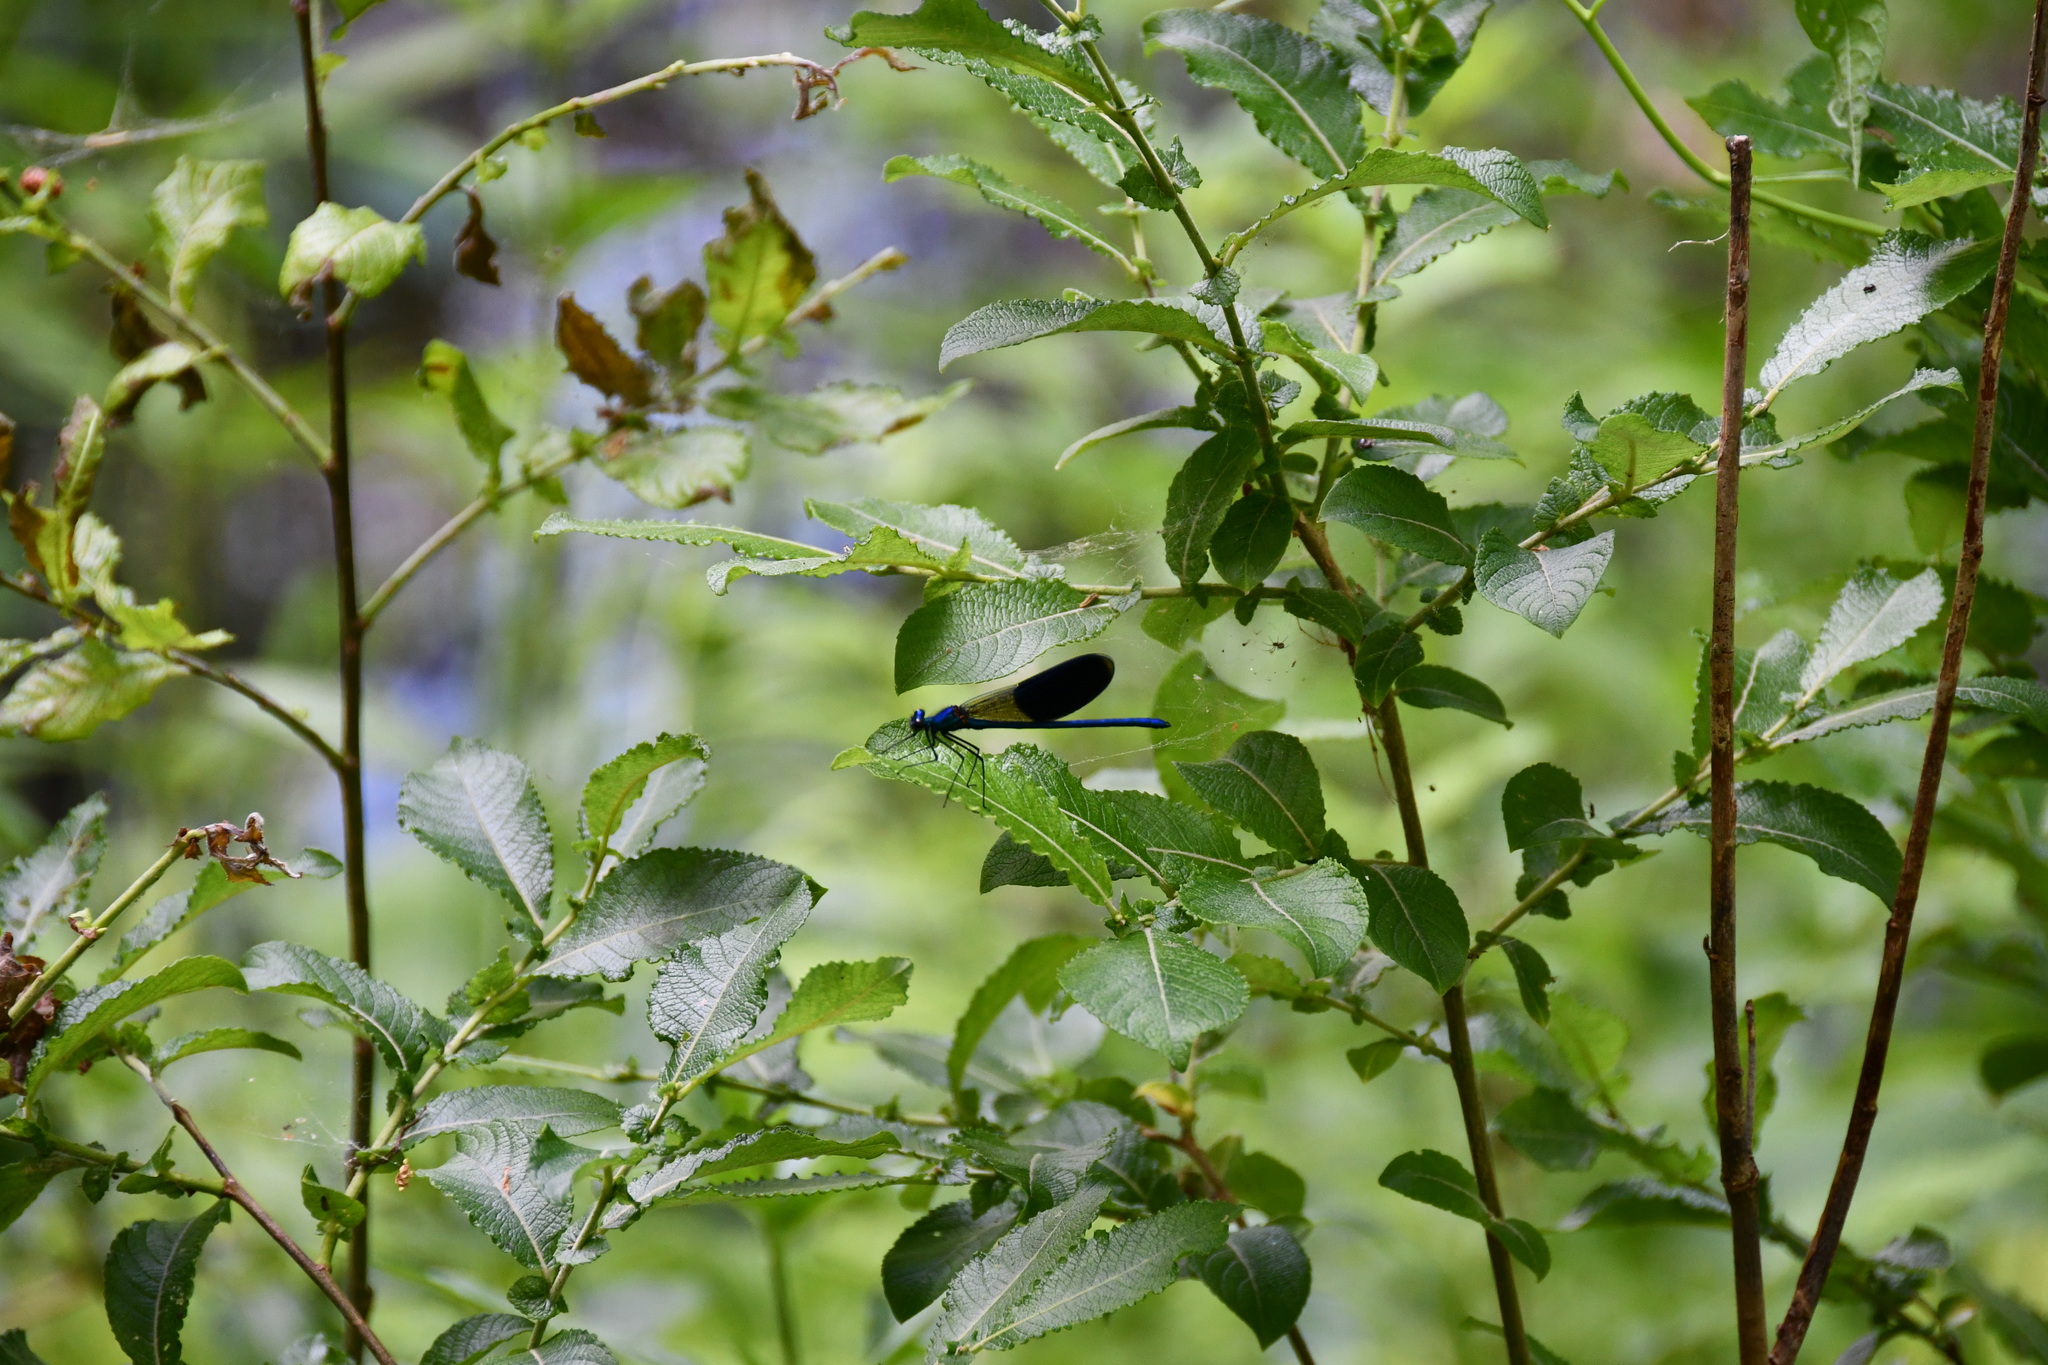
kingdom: Animalia
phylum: Arthropoda
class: Insecta
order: Odonata
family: Calopterygidae
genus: Calopteryx
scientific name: Calopteryx splendens
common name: Banded demoiselle
